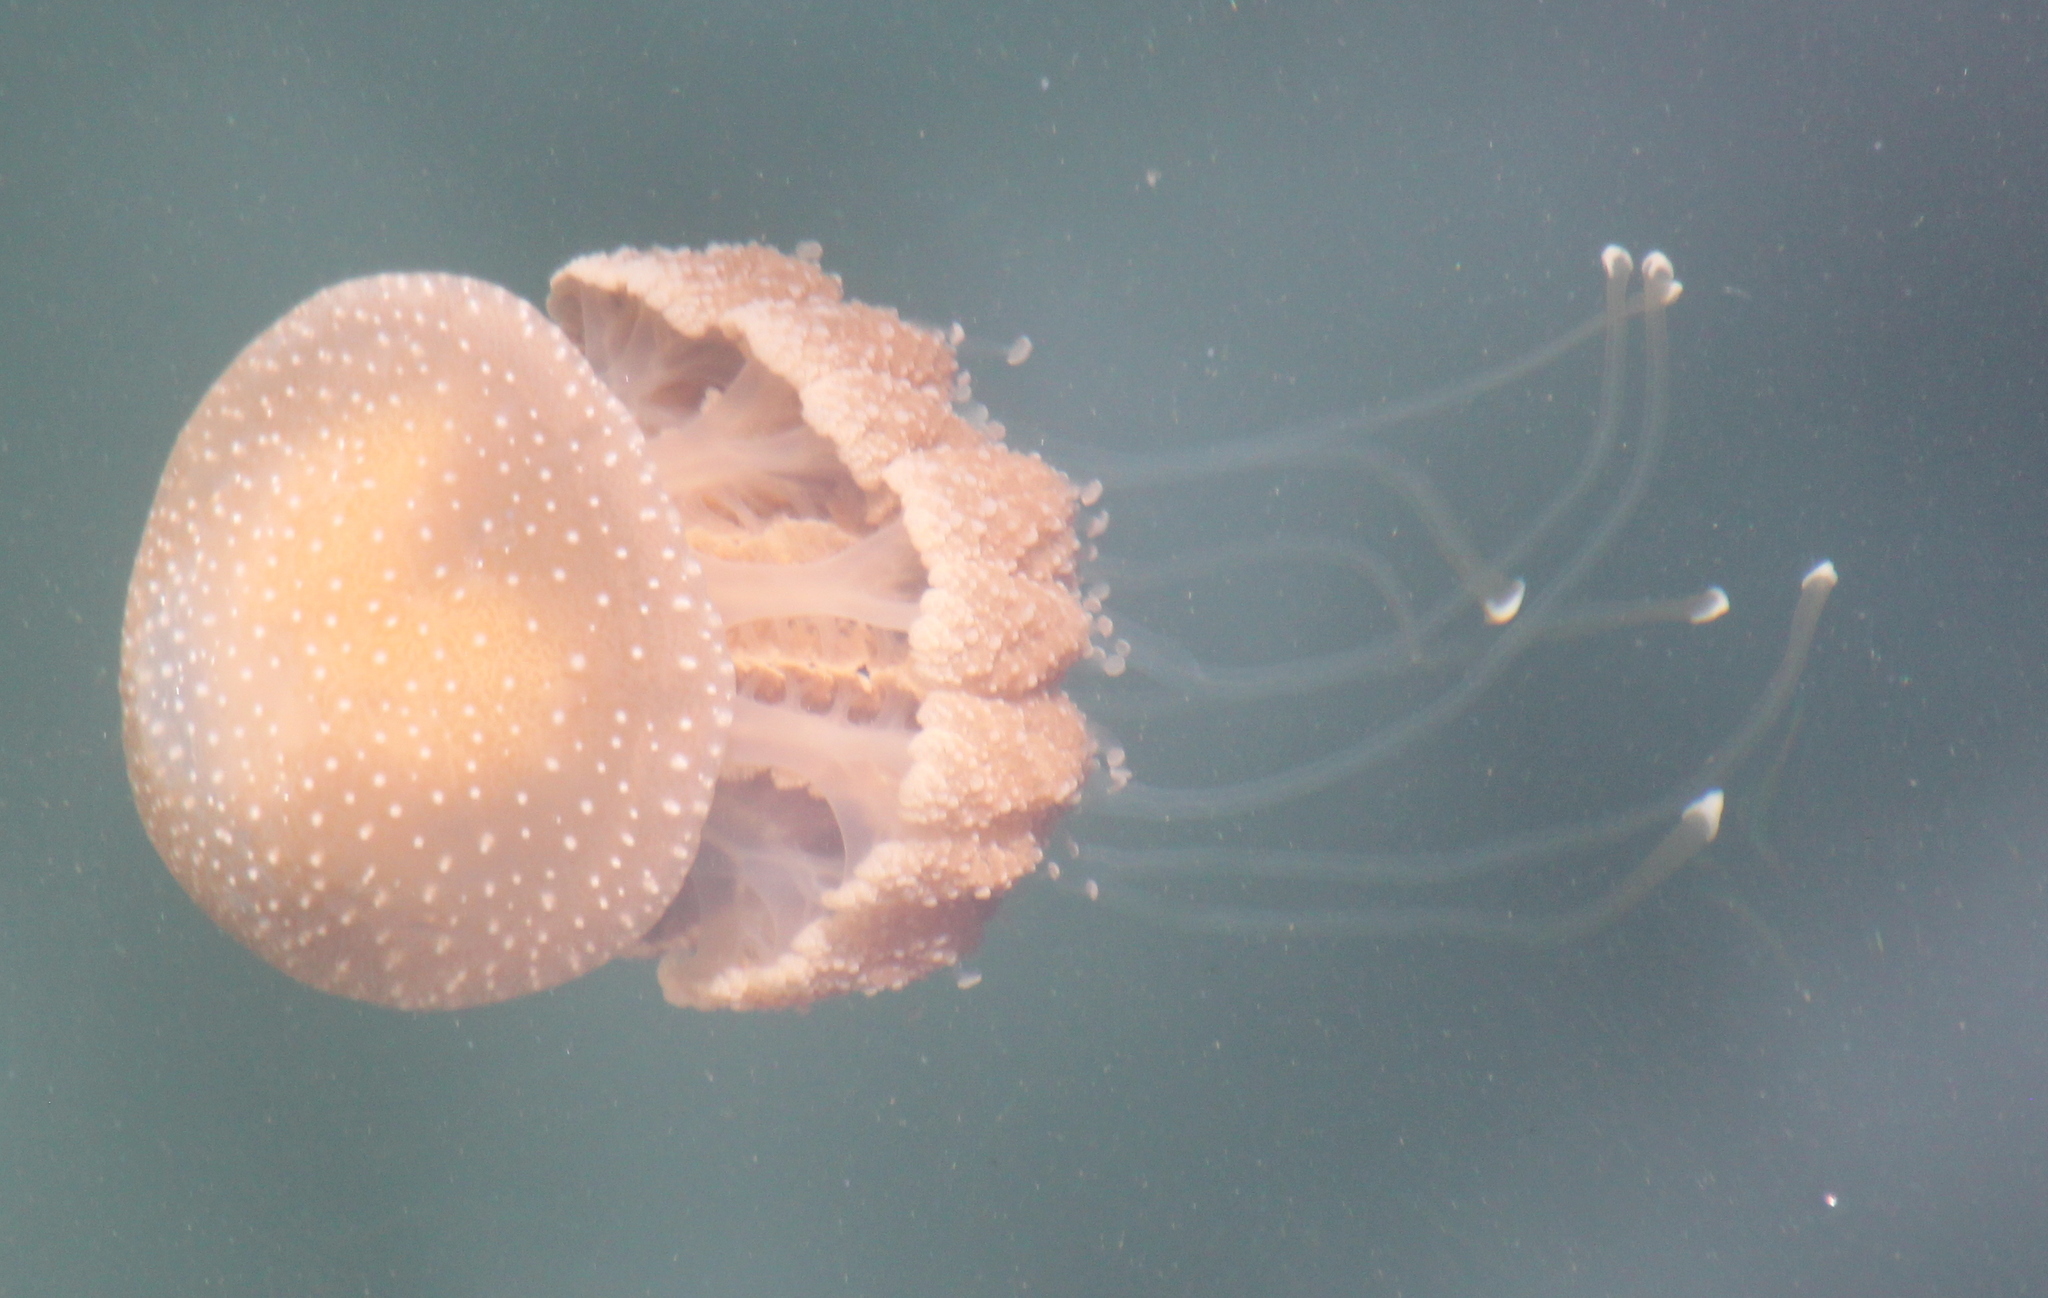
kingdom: Animalia
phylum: Cnidaria
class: Scyphozoa
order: Rhizostomeae
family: Mastigiidae
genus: Phyllorhiza
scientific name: Phyllorhiza punctata
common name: Australian spotted jellyfish
